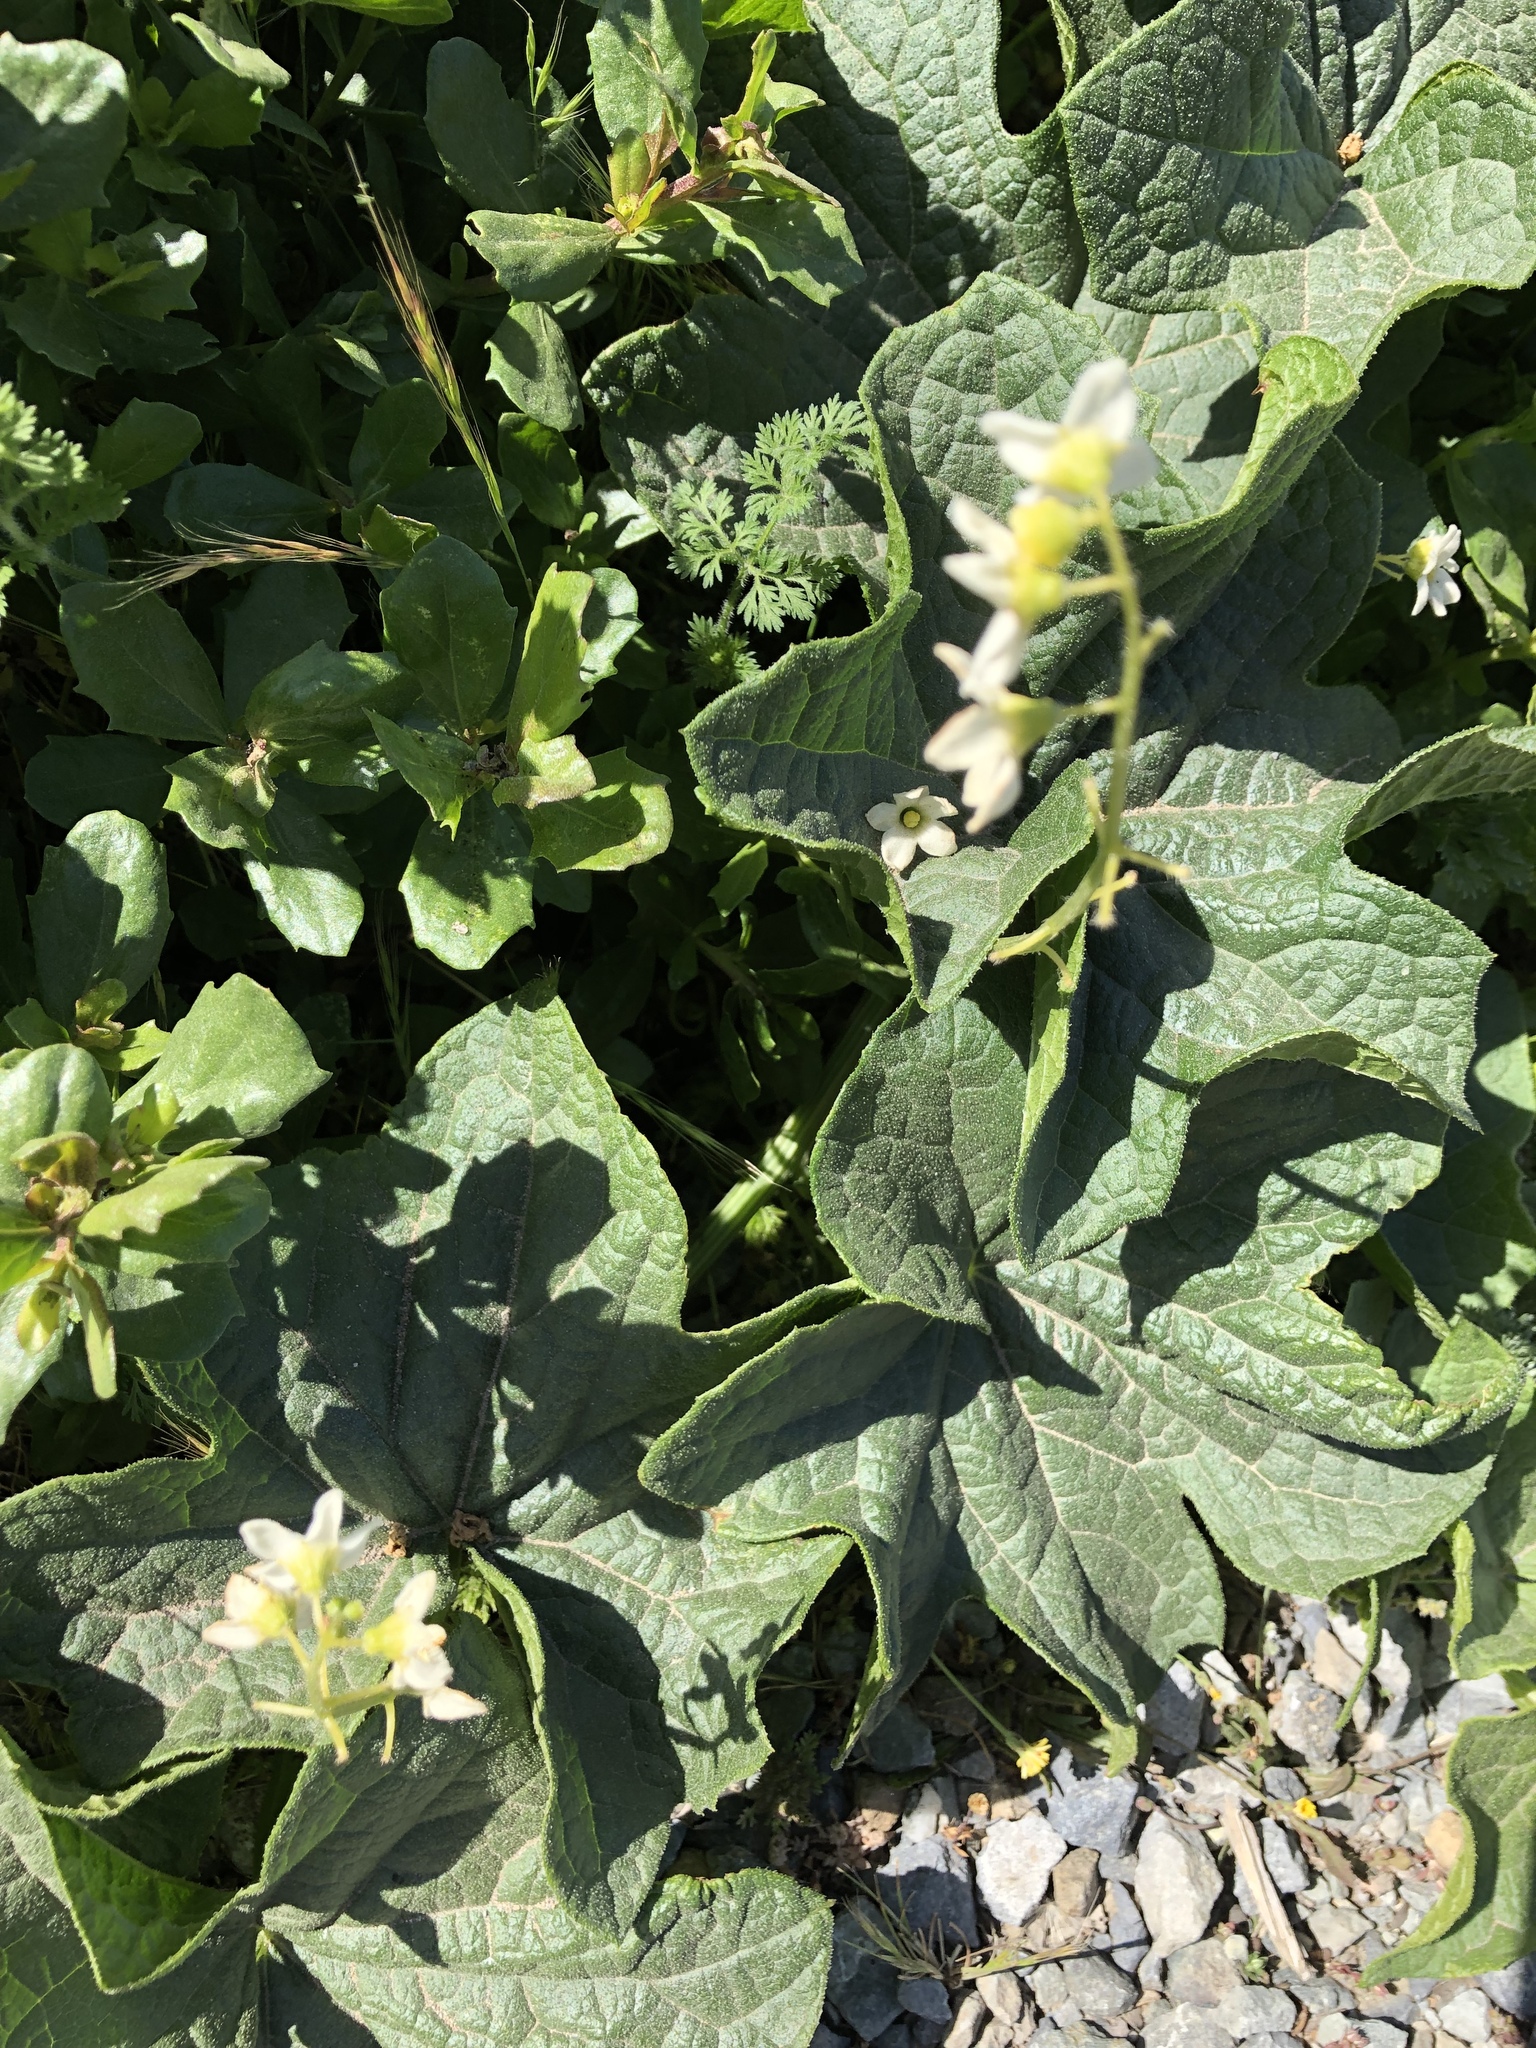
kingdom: Plantae
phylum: Tracheophyta
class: Magnoliopsida
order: Cucurbitales
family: Cucurbitaceae
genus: Marah
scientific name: Marah oregana
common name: Coastal manroot
